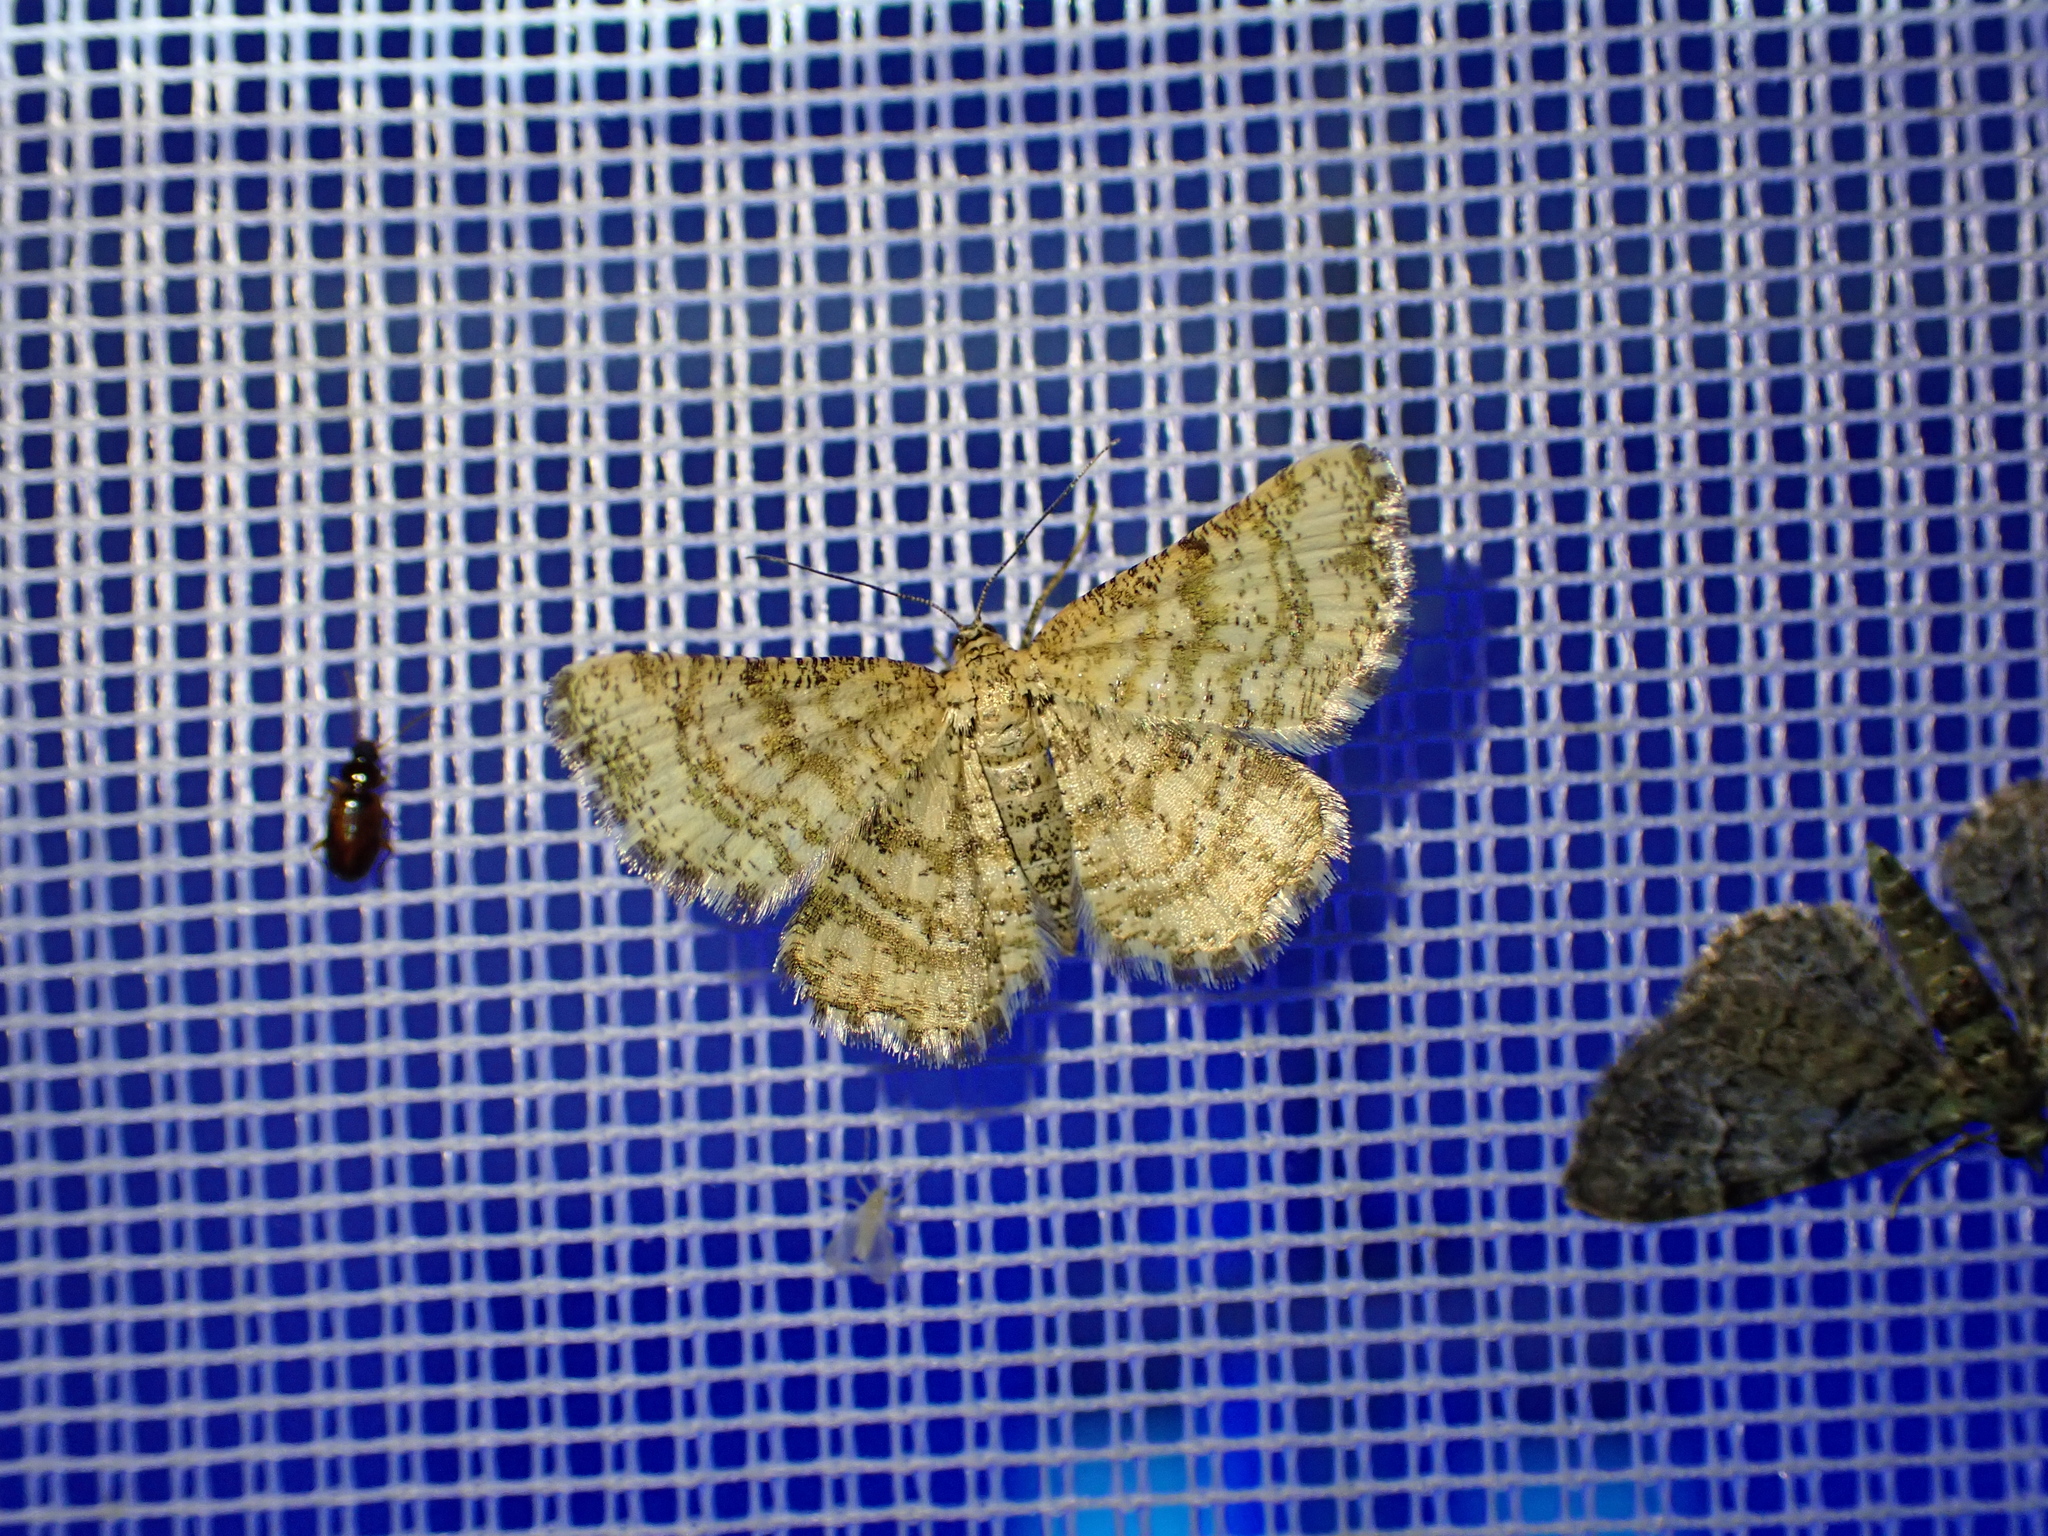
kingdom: Animalia
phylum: Arthropoda
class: Insecta
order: Lepidoptera
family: Geometridae
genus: Heliomata
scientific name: Heliomata glarearia
